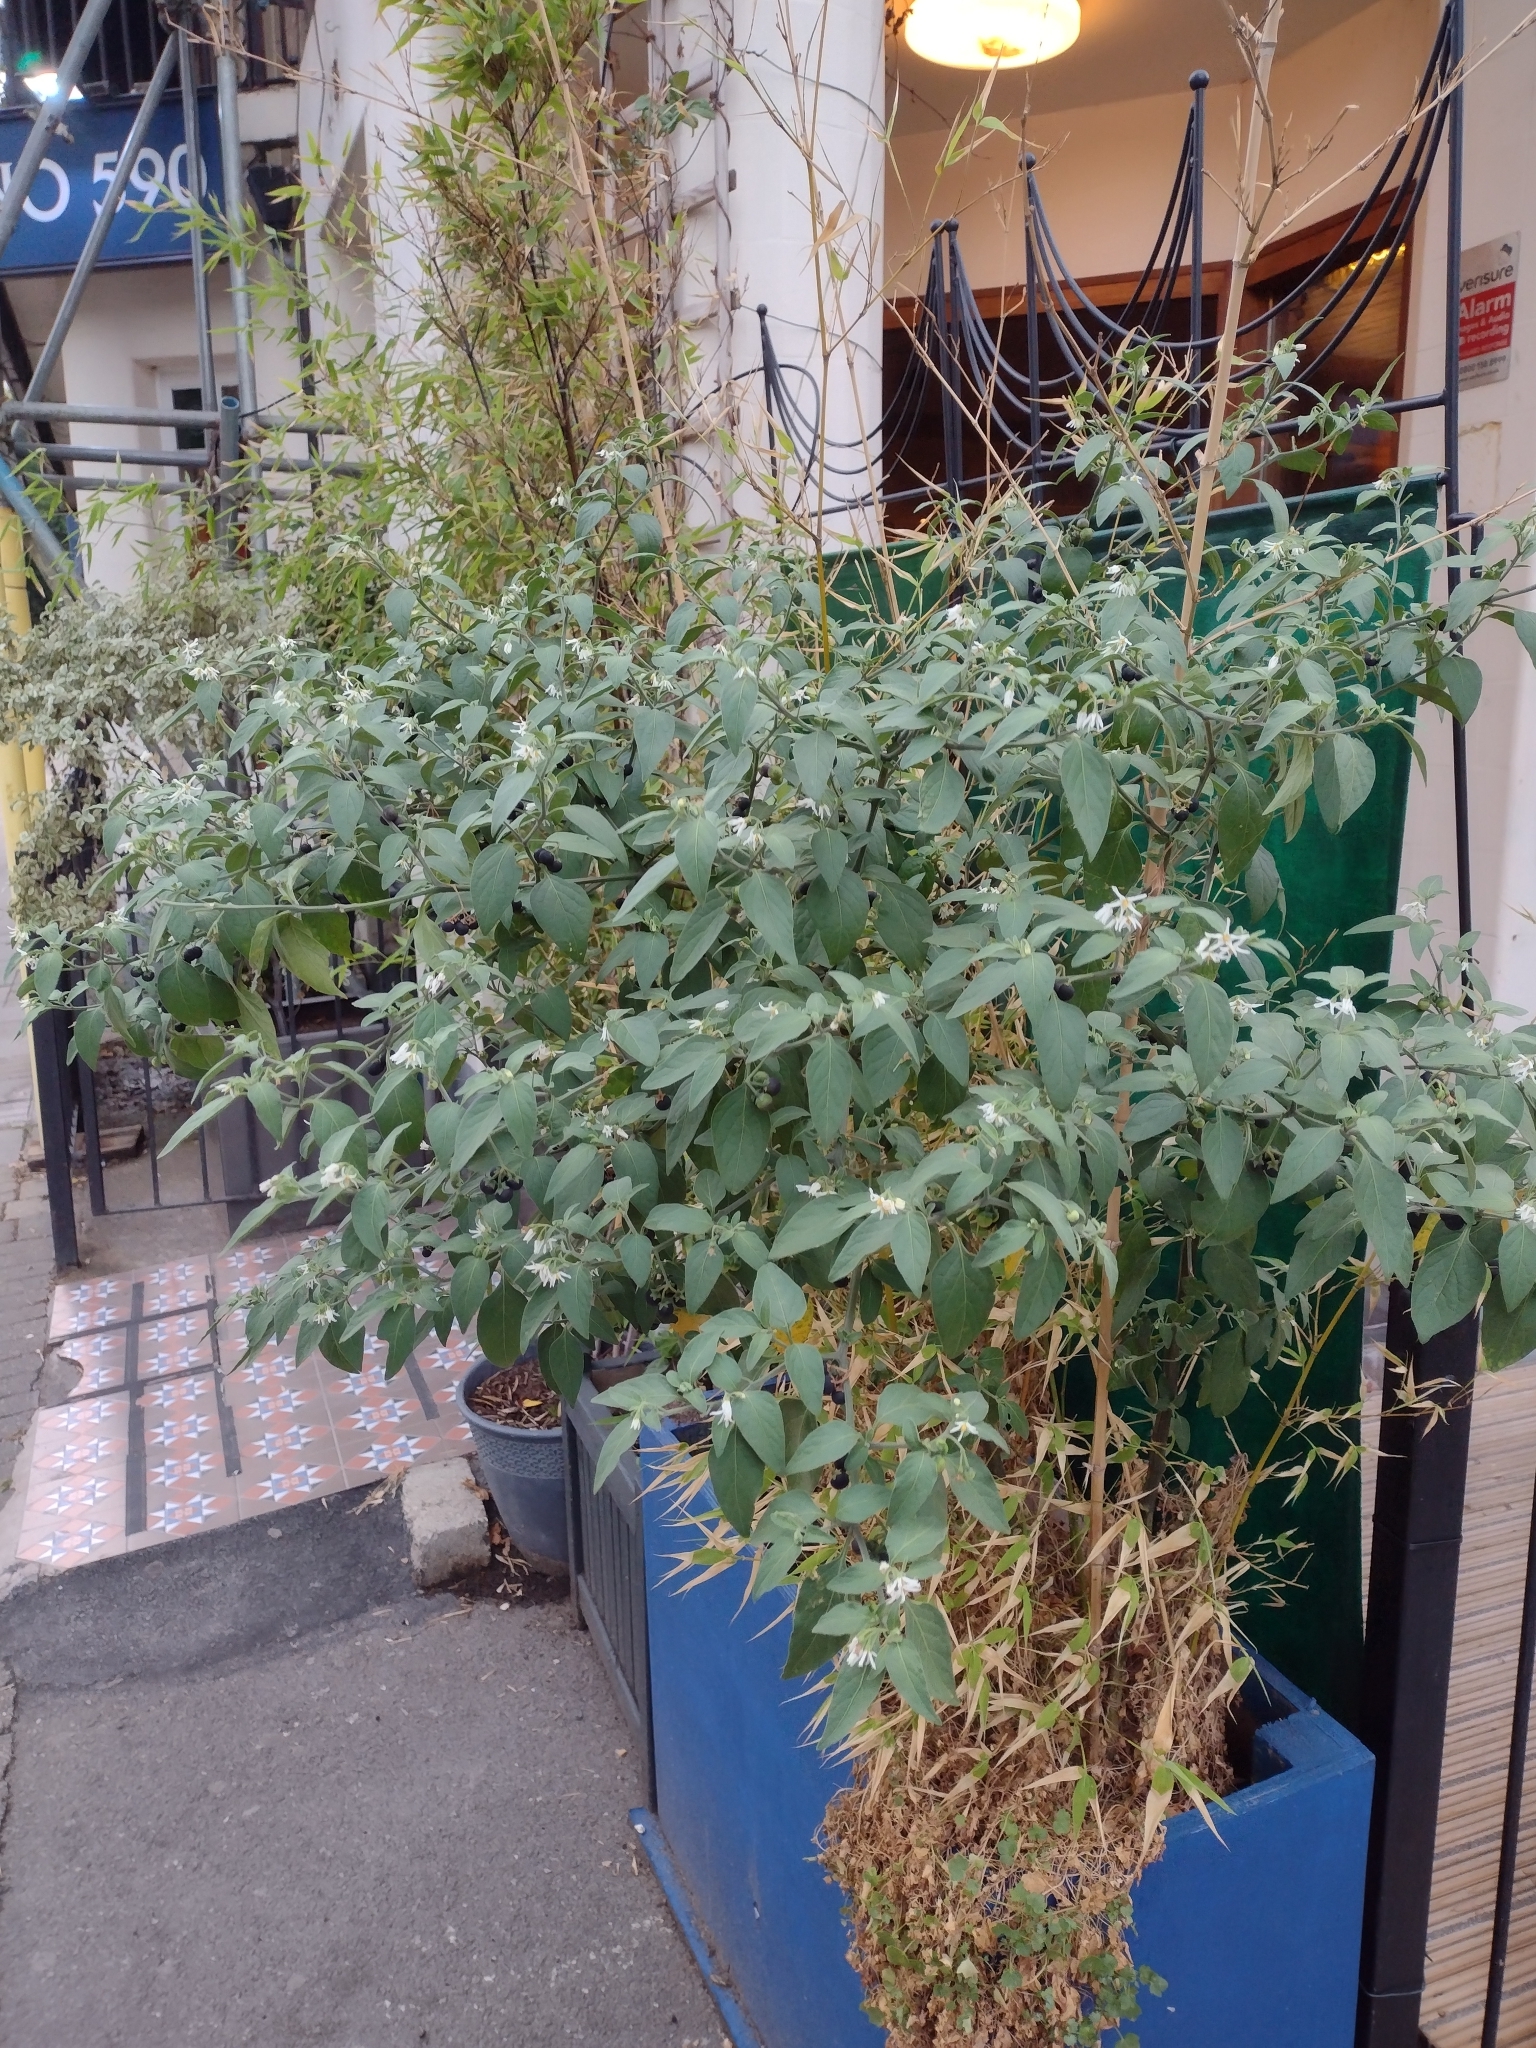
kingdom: Plantae
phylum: Tracheophyta
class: Magnoliopsida
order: Solanales
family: Solanaceae
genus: Solanum
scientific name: Solanum chenopodioides
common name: Tall nightshade
